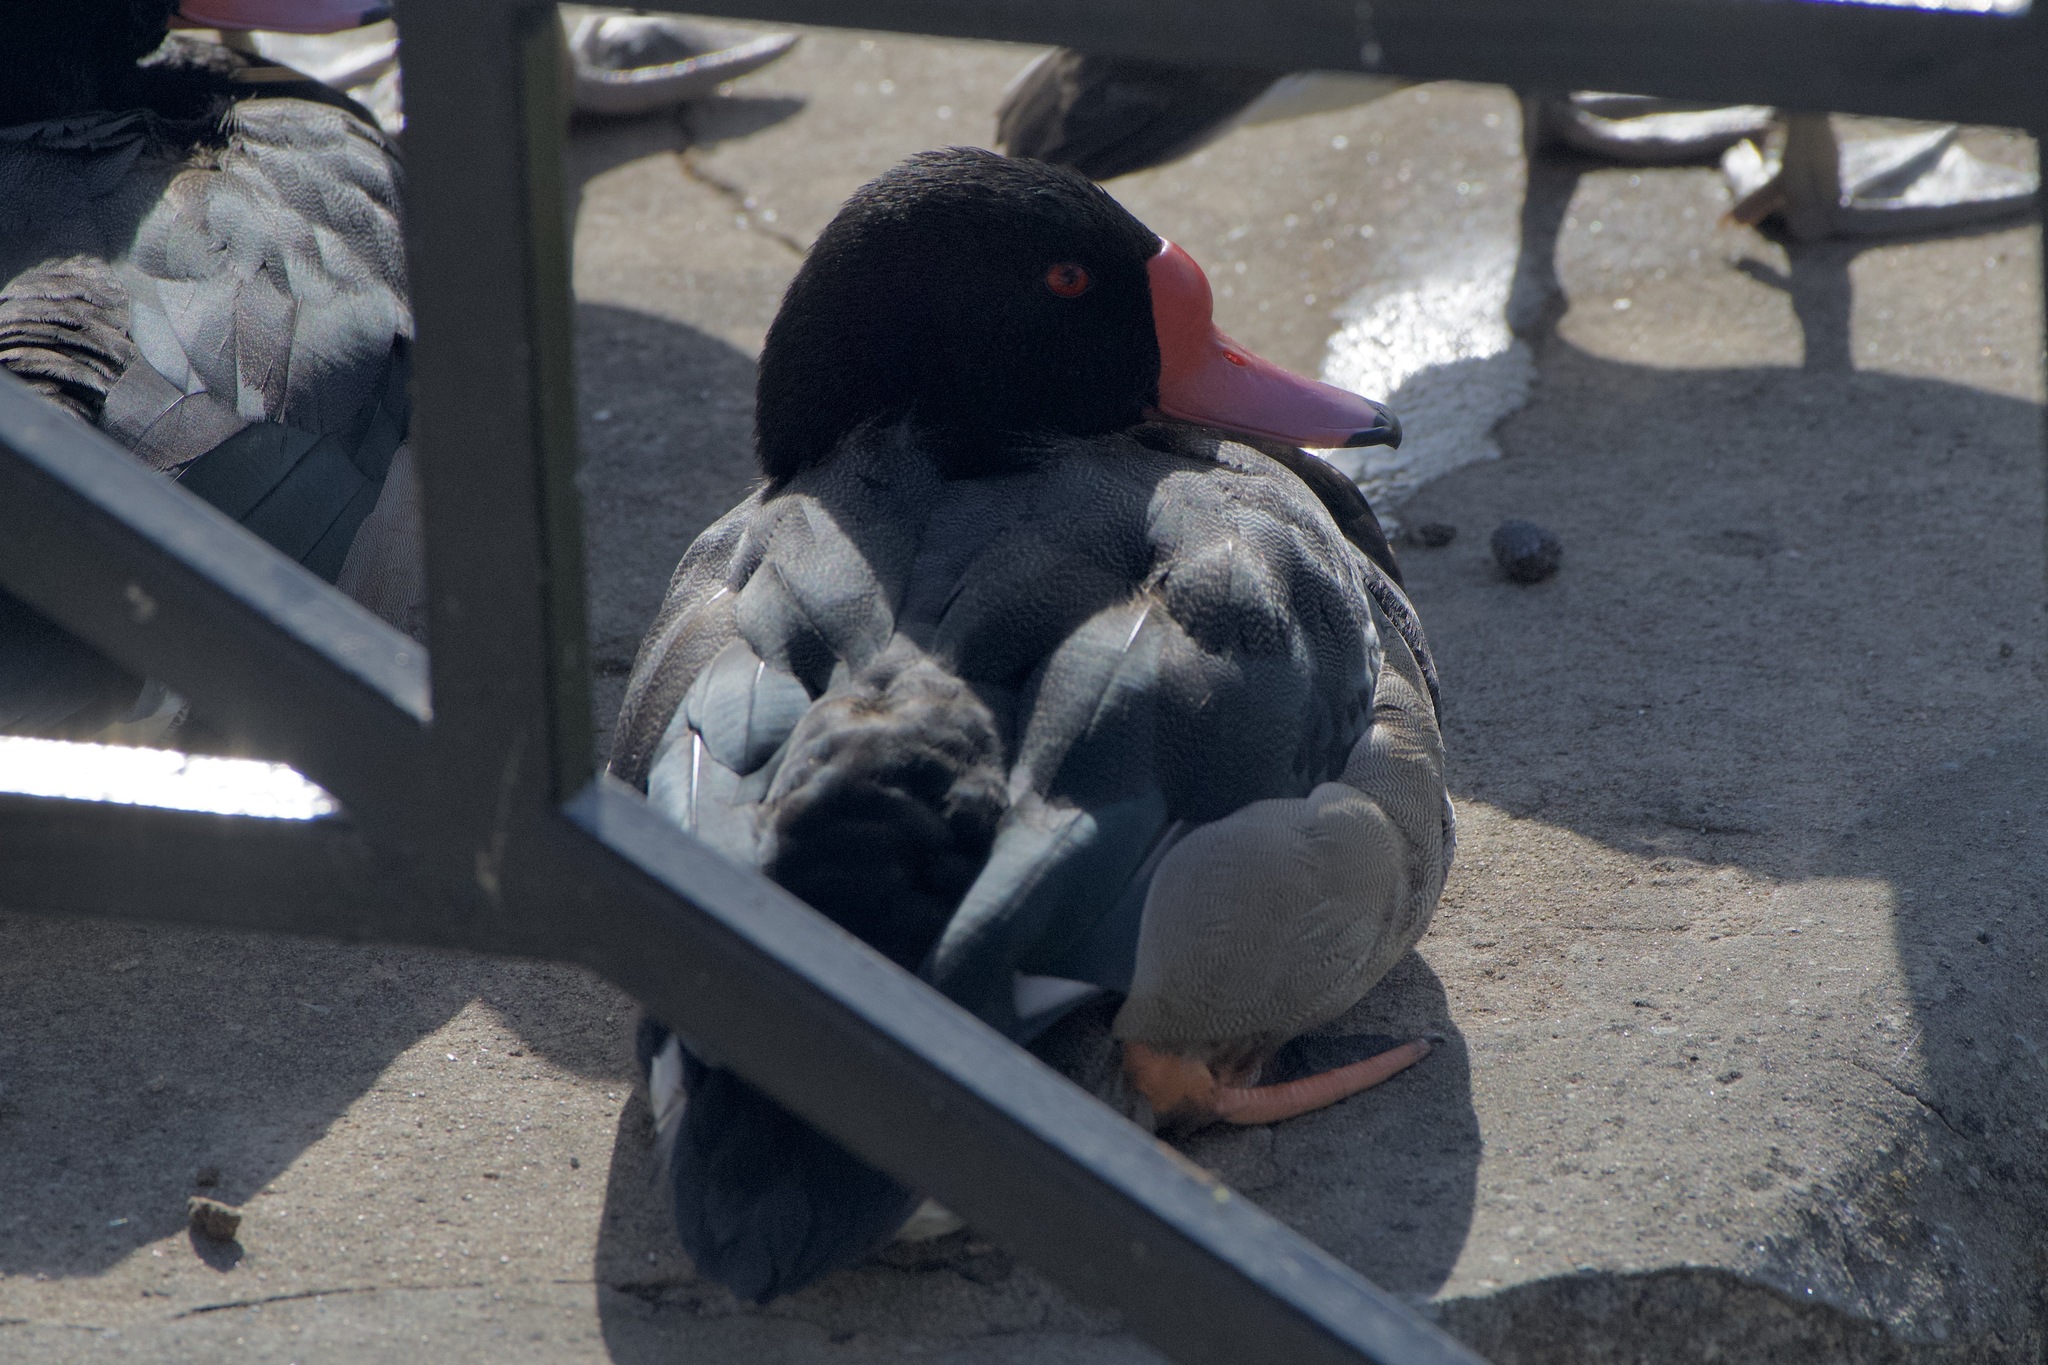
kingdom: Animalia
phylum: Chordata
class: Aves
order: Anseriformes
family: Anatidae
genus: Netta
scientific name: Netta peposaca
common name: Rosy-billed pochard
